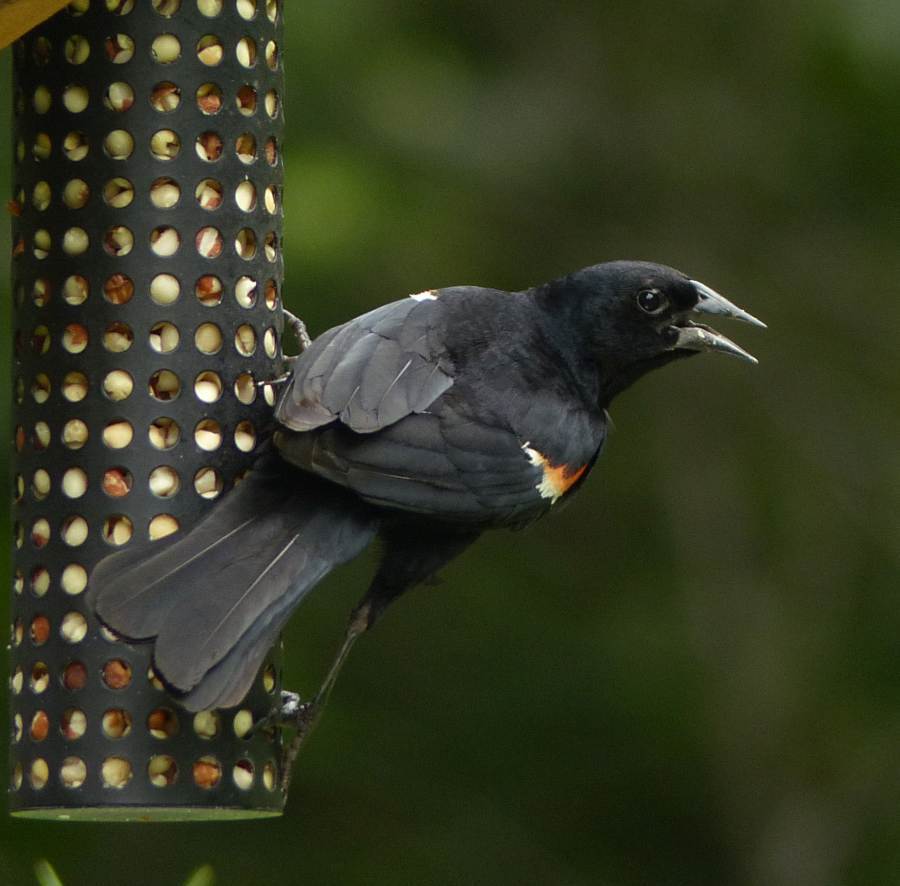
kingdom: Animalia
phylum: Chordata
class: Aves
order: Passeriformes
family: Icteridae
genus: Agelaius
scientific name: Agelaius phoeniceus
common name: Red-winged blackbird
